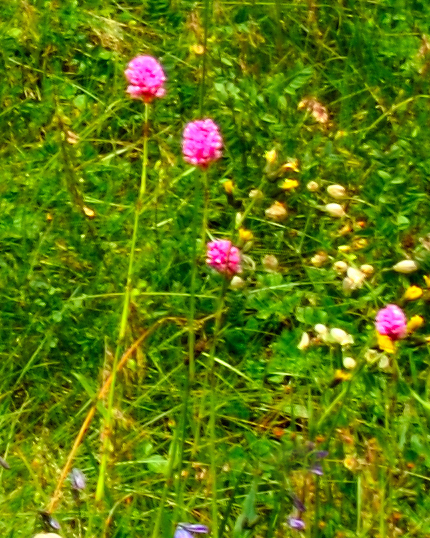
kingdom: Plantae
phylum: Tracheophyta
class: Magnoliopsida
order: Caryophyllales
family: Polygonaceae
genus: Bistorta
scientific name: Bistorta carnea
